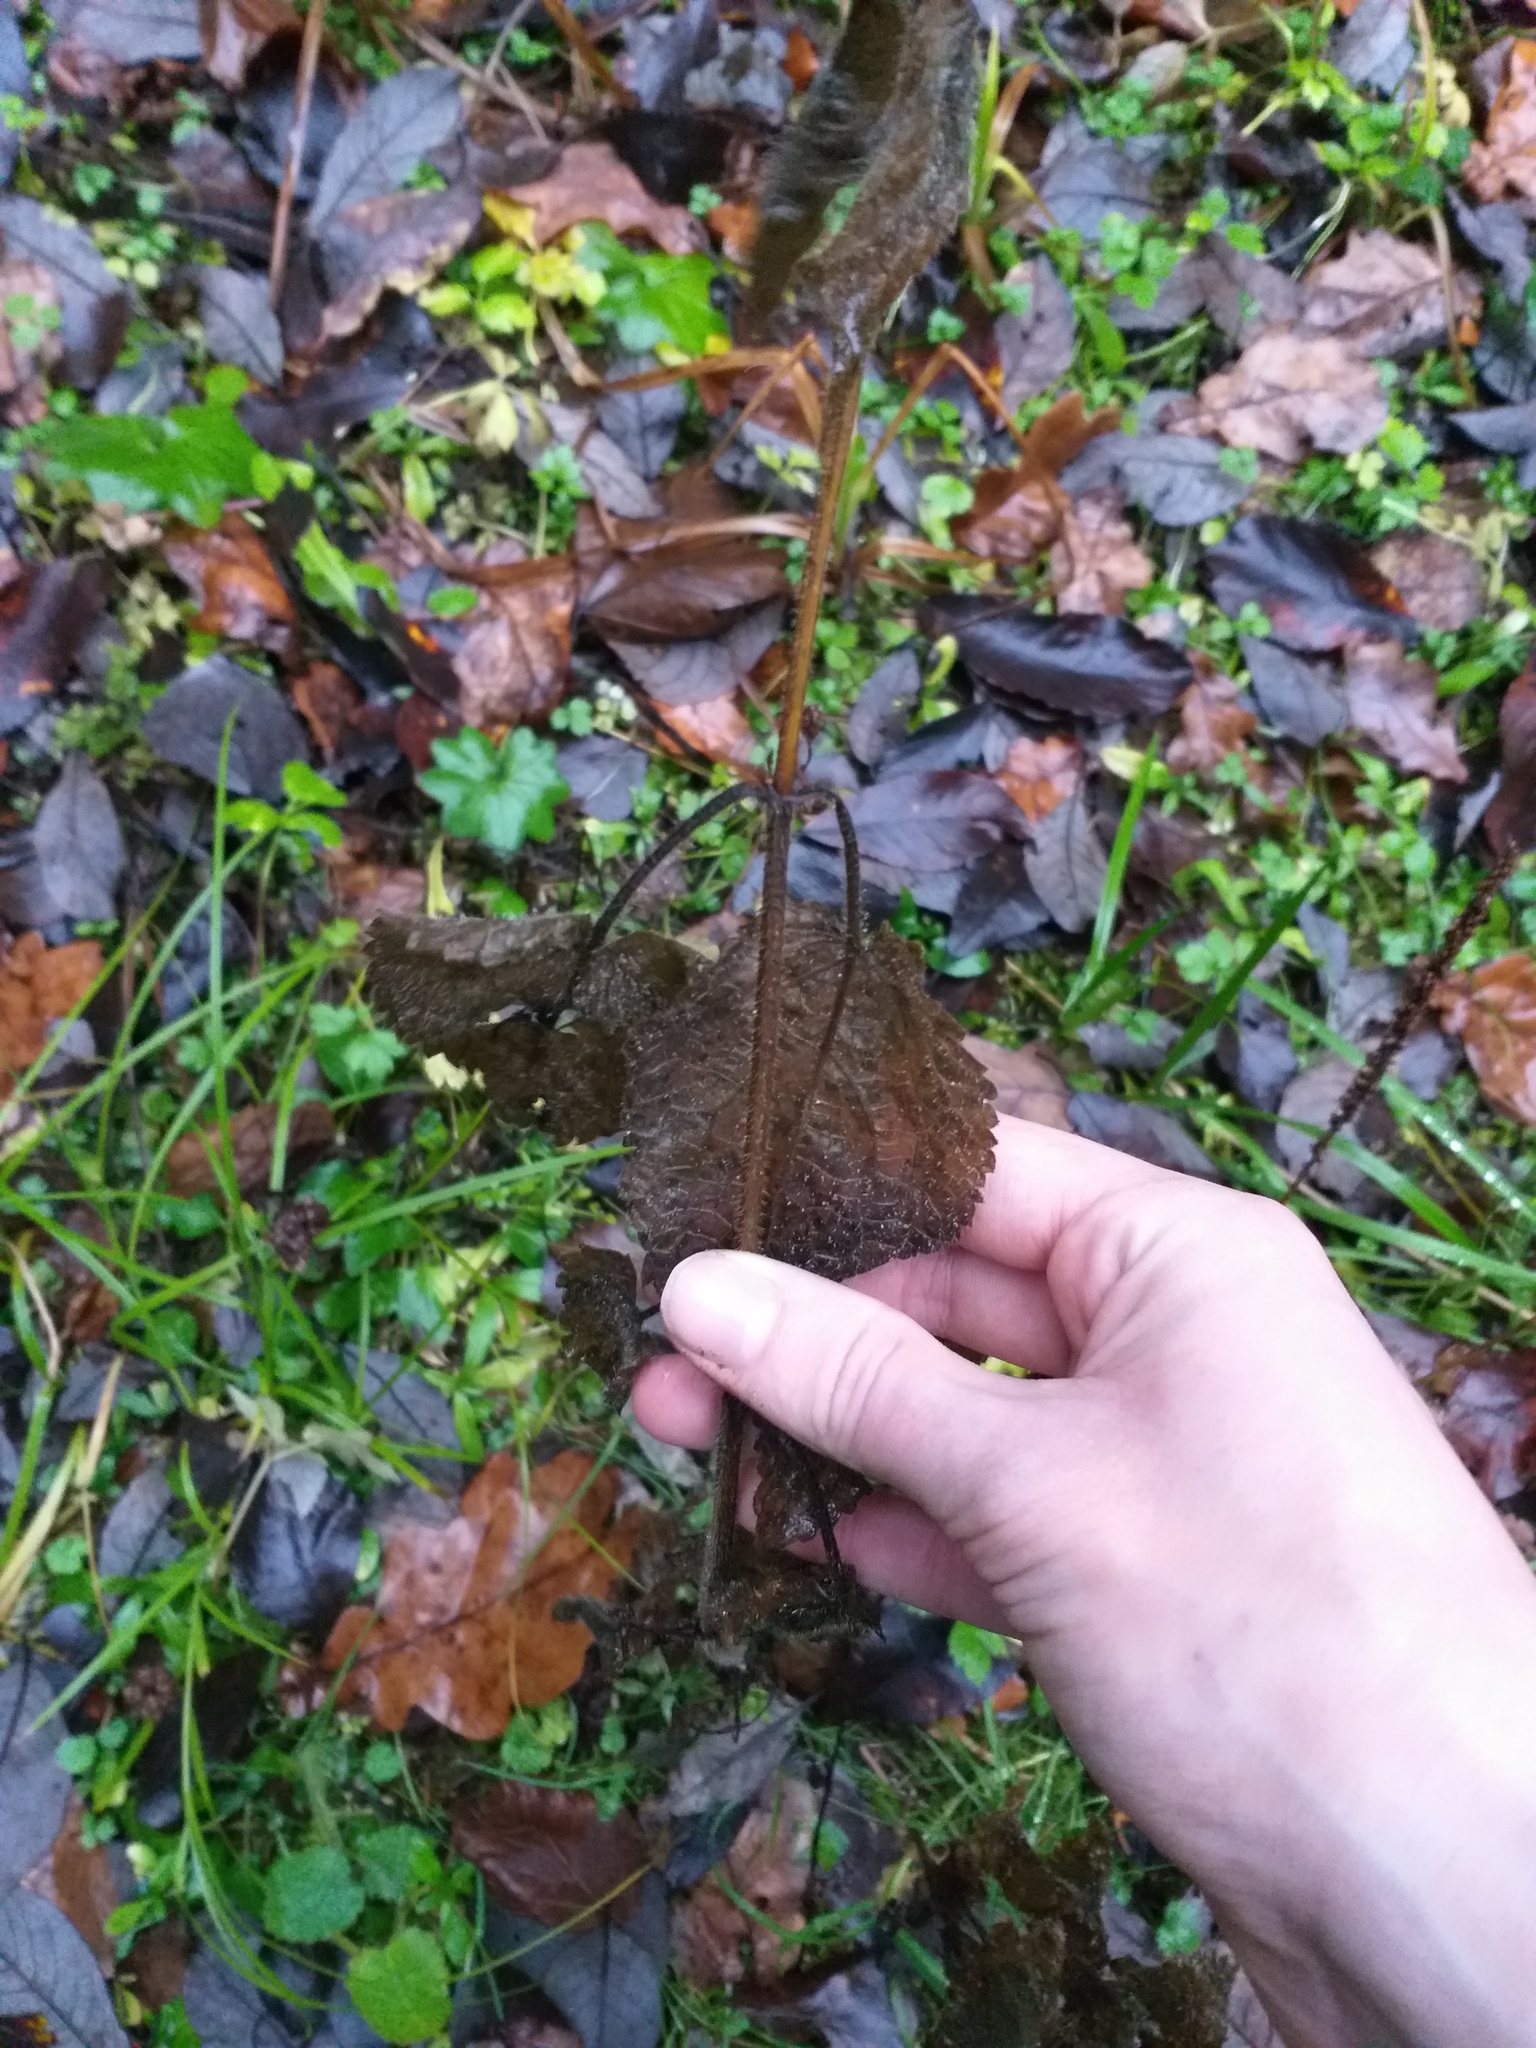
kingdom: Plantae
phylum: Tracheophyta
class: Magnoliopsida
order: Lamiales
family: Lamiaceae
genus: Stachys
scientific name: Stachys sylvatica
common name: Hedge woundwort
